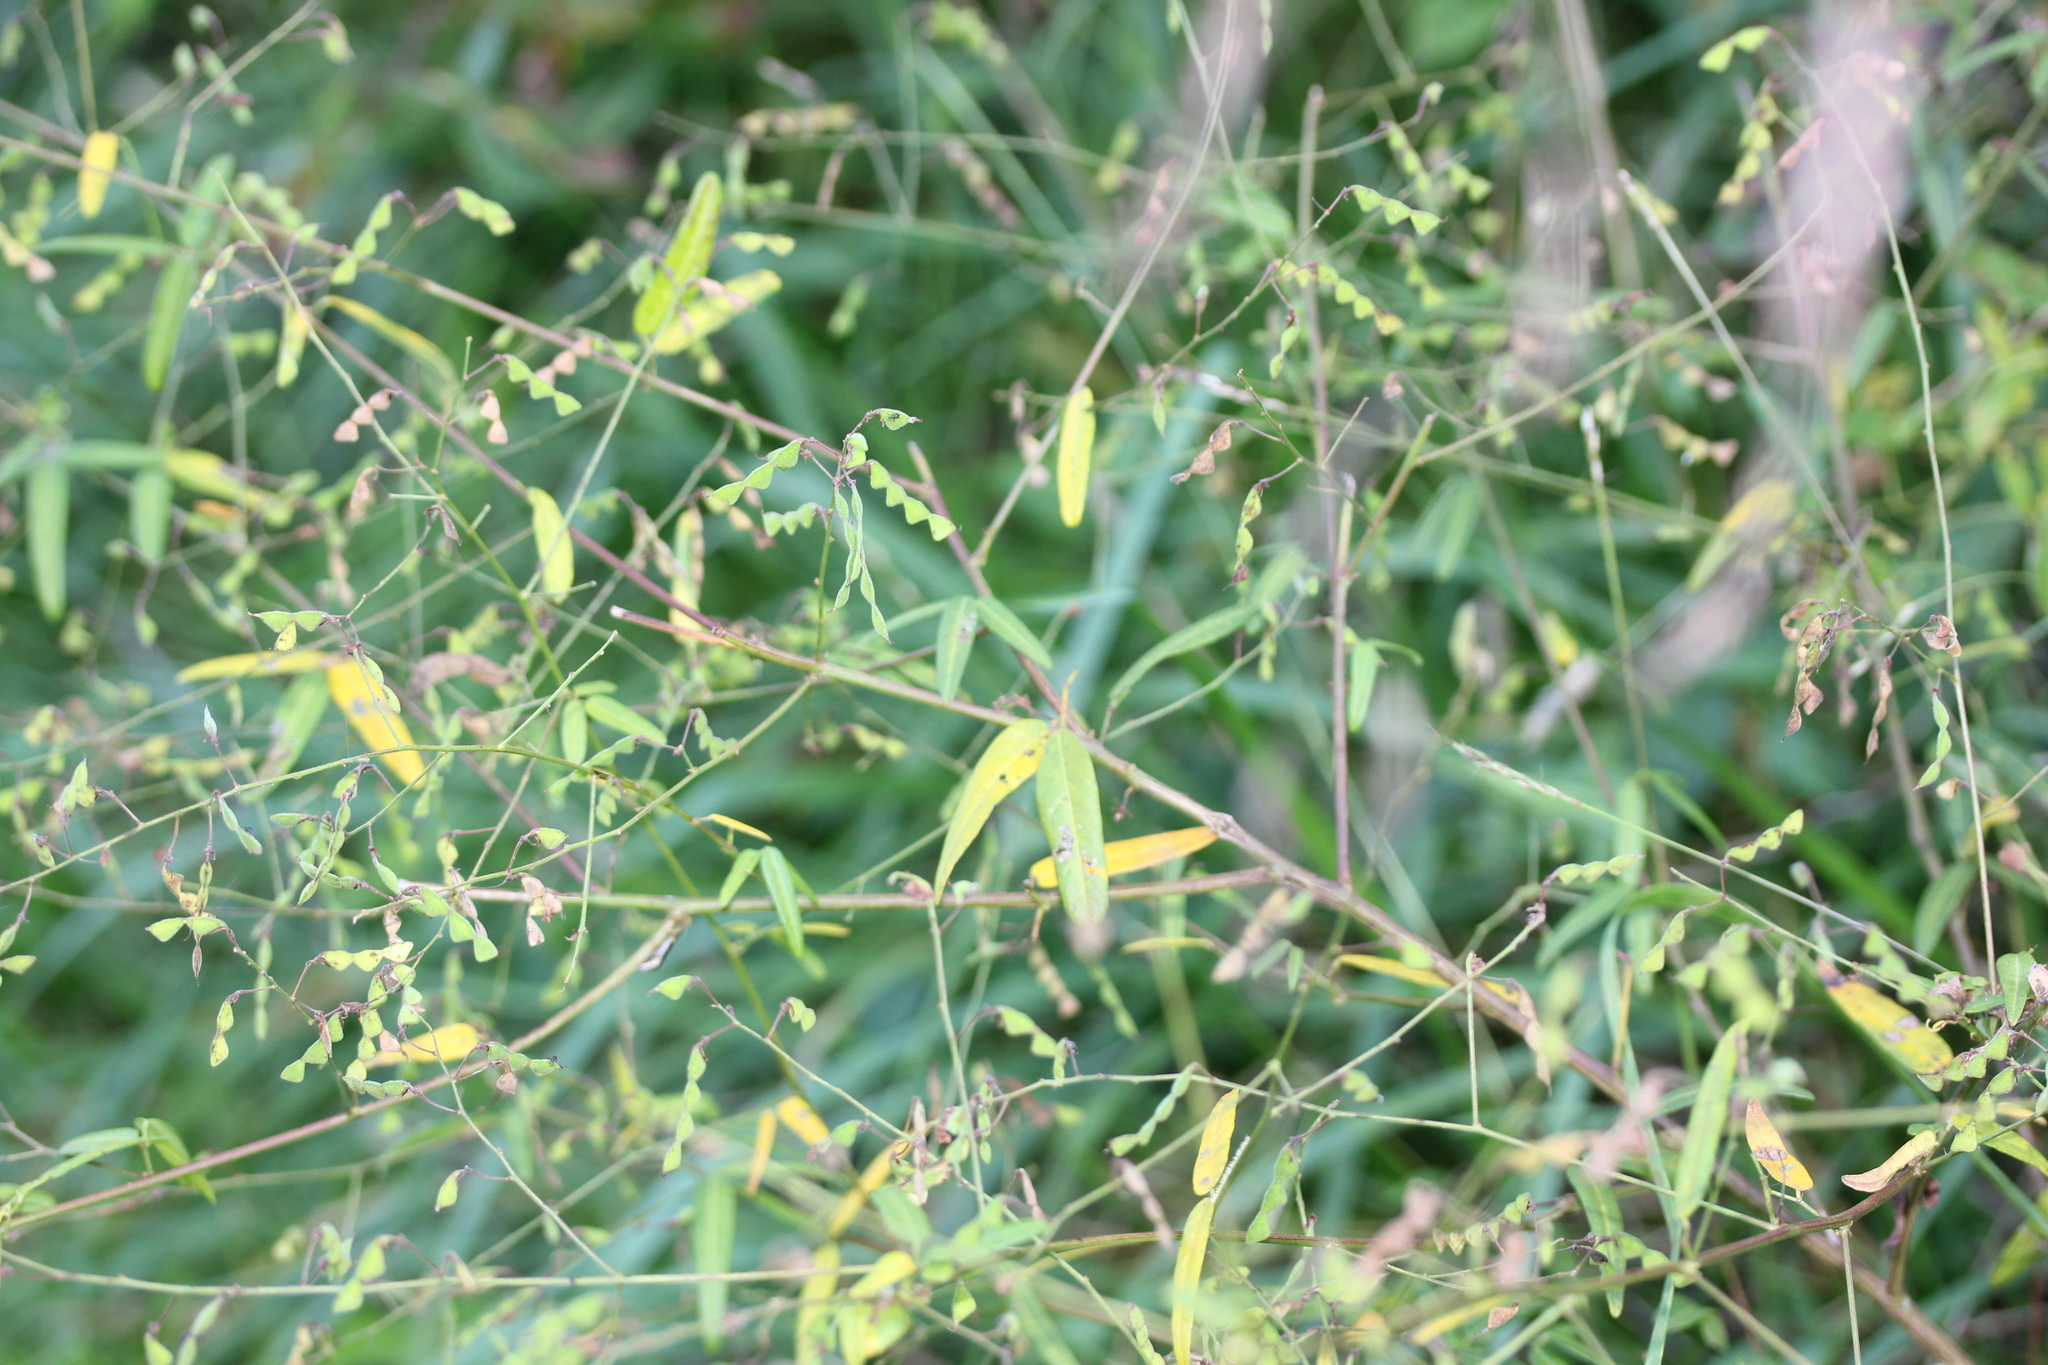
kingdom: Plantae
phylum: Tracheophyta
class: Magnoliopsida
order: Fabales
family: Fabaceae
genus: Desmodium
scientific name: Desmodium paniculatum
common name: Panicled tick-clover
